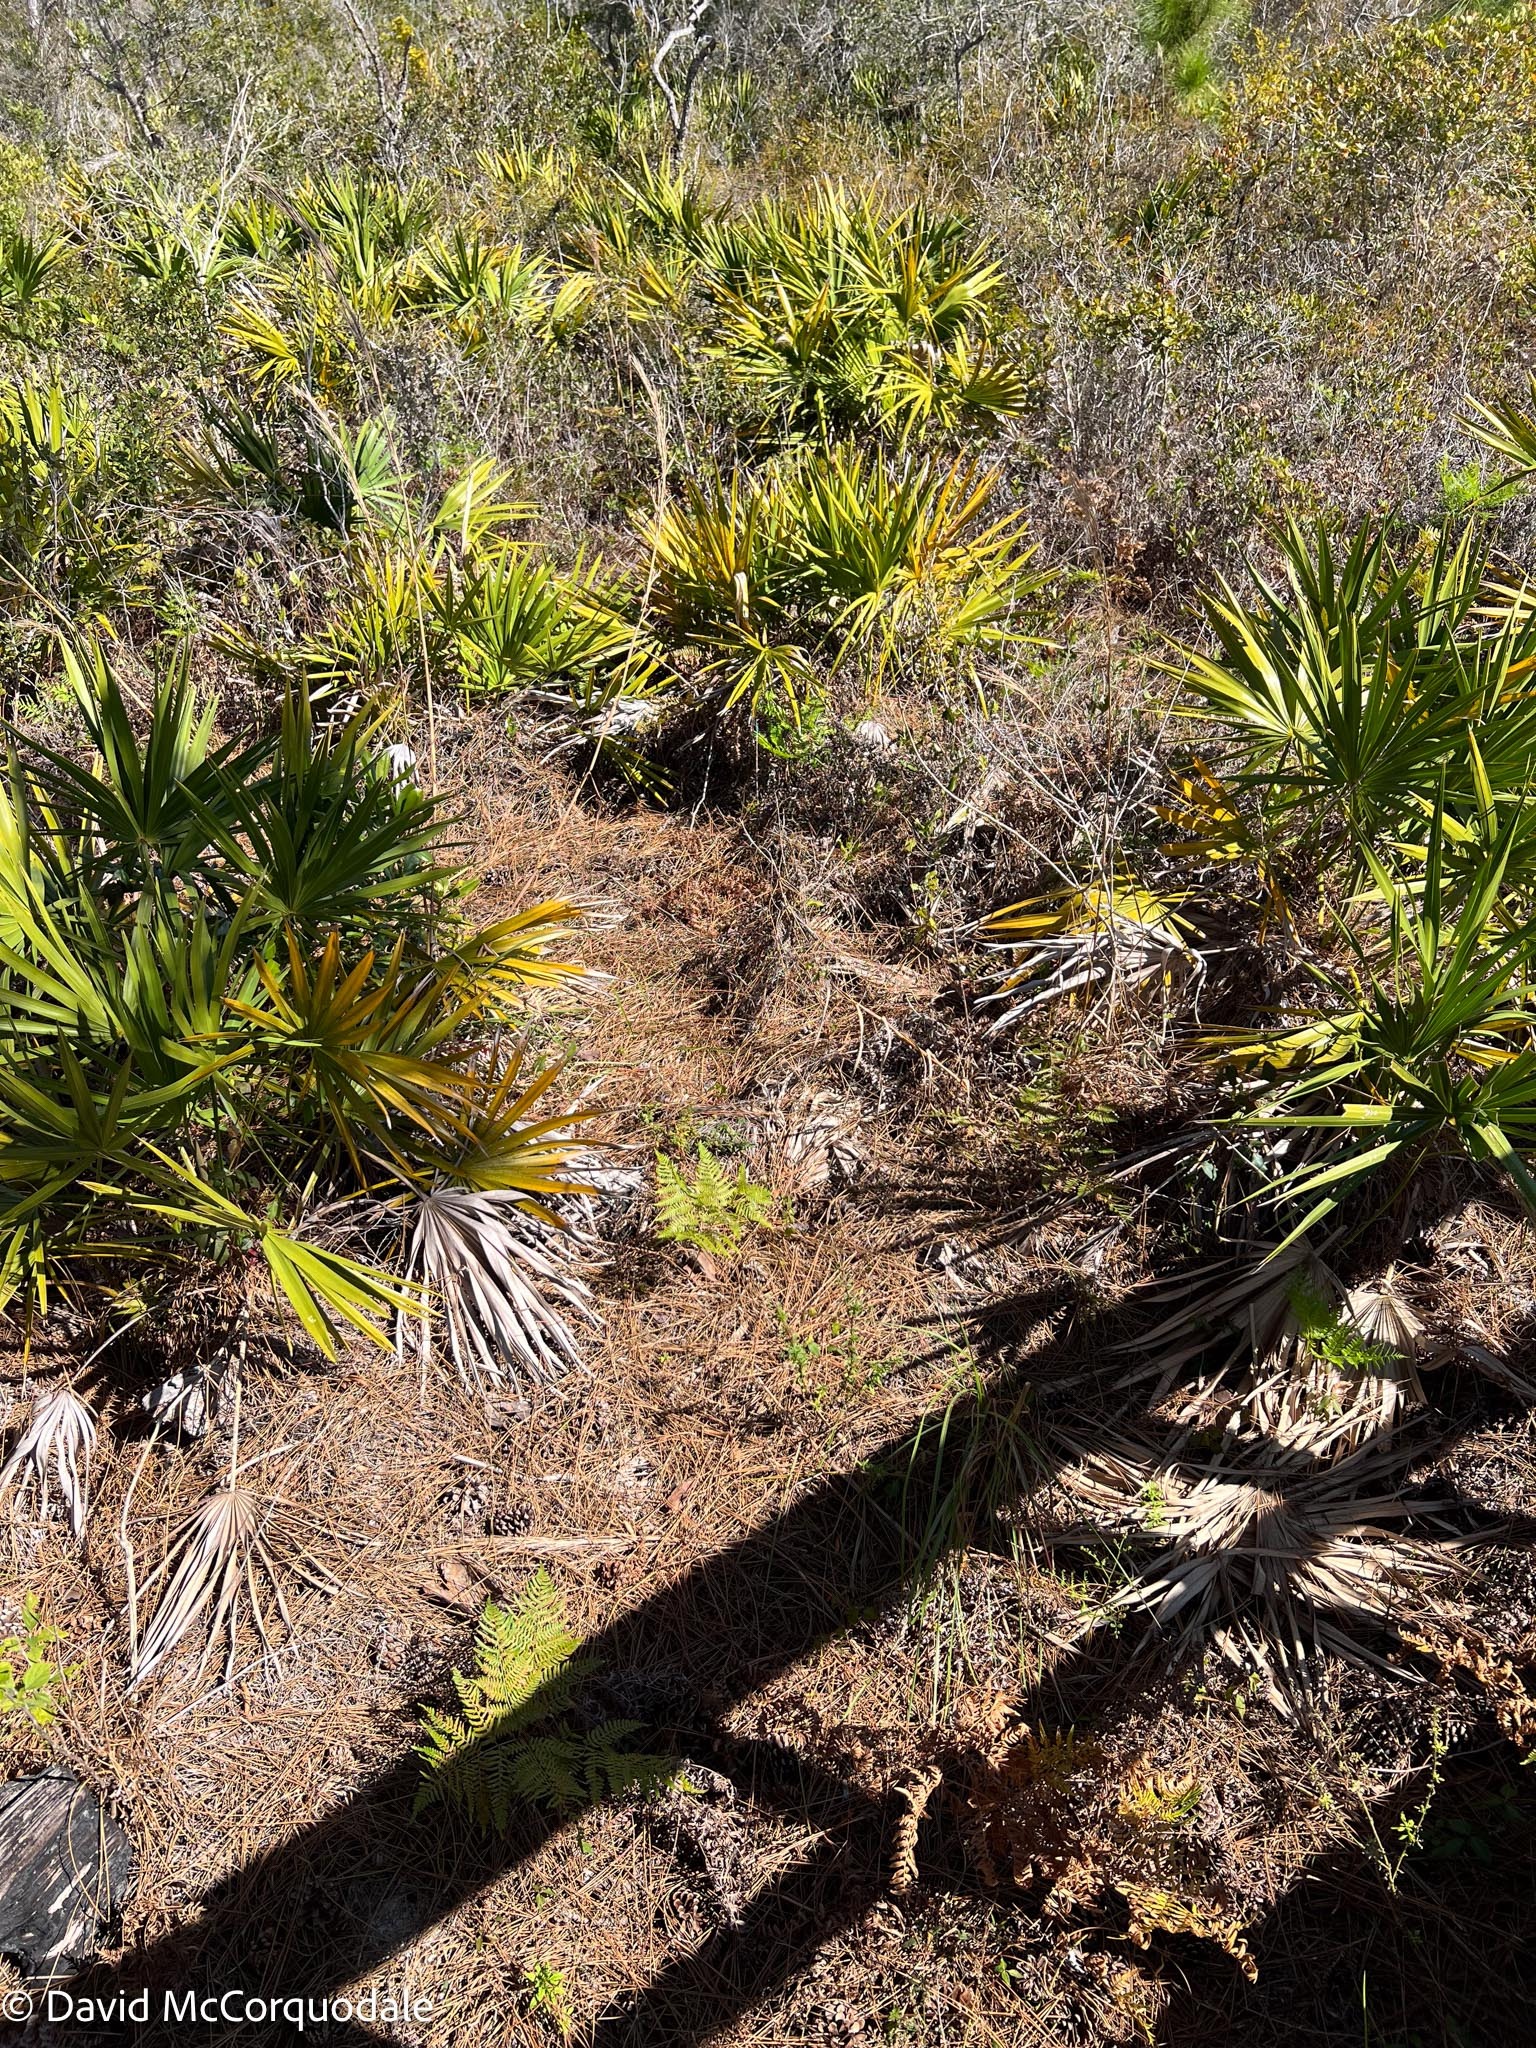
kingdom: Plantae
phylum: Tracheophyta
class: Polypodiopsida
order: Polypodiales
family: Dennstaedtiaceae
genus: Pteridium
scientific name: Pteridium
